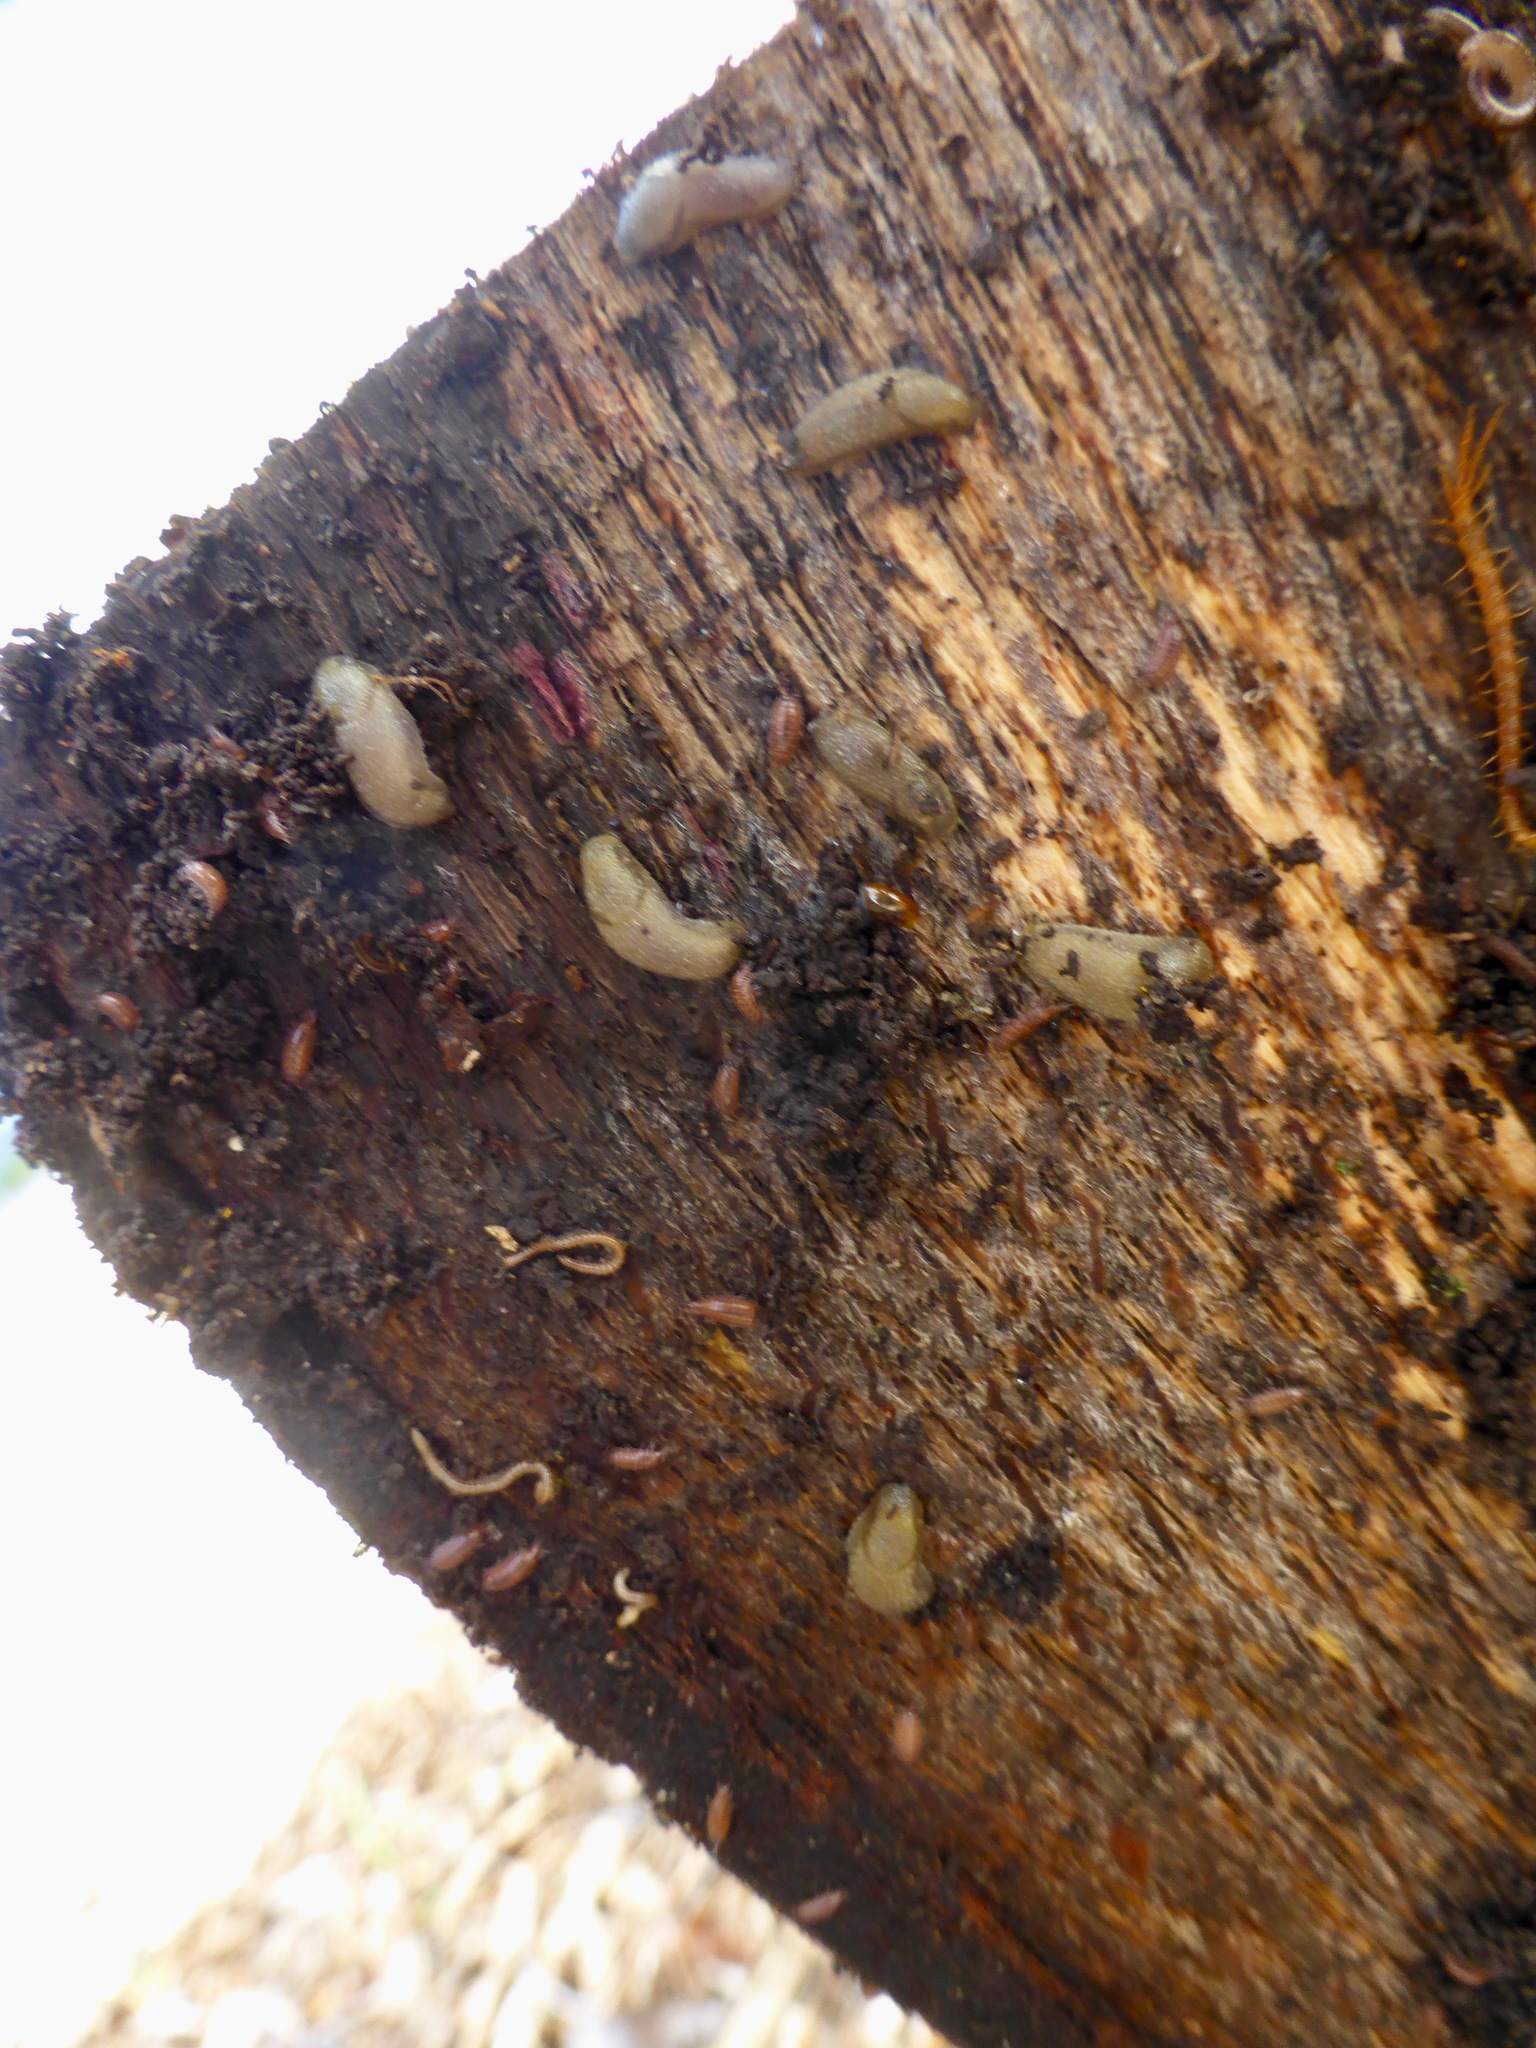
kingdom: Animalia
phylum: Mollusca
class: Gastropoda
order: Stylommatophora
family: Arionidae
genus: Arion
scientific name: Arion intermedius
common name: Hedgehog slug
